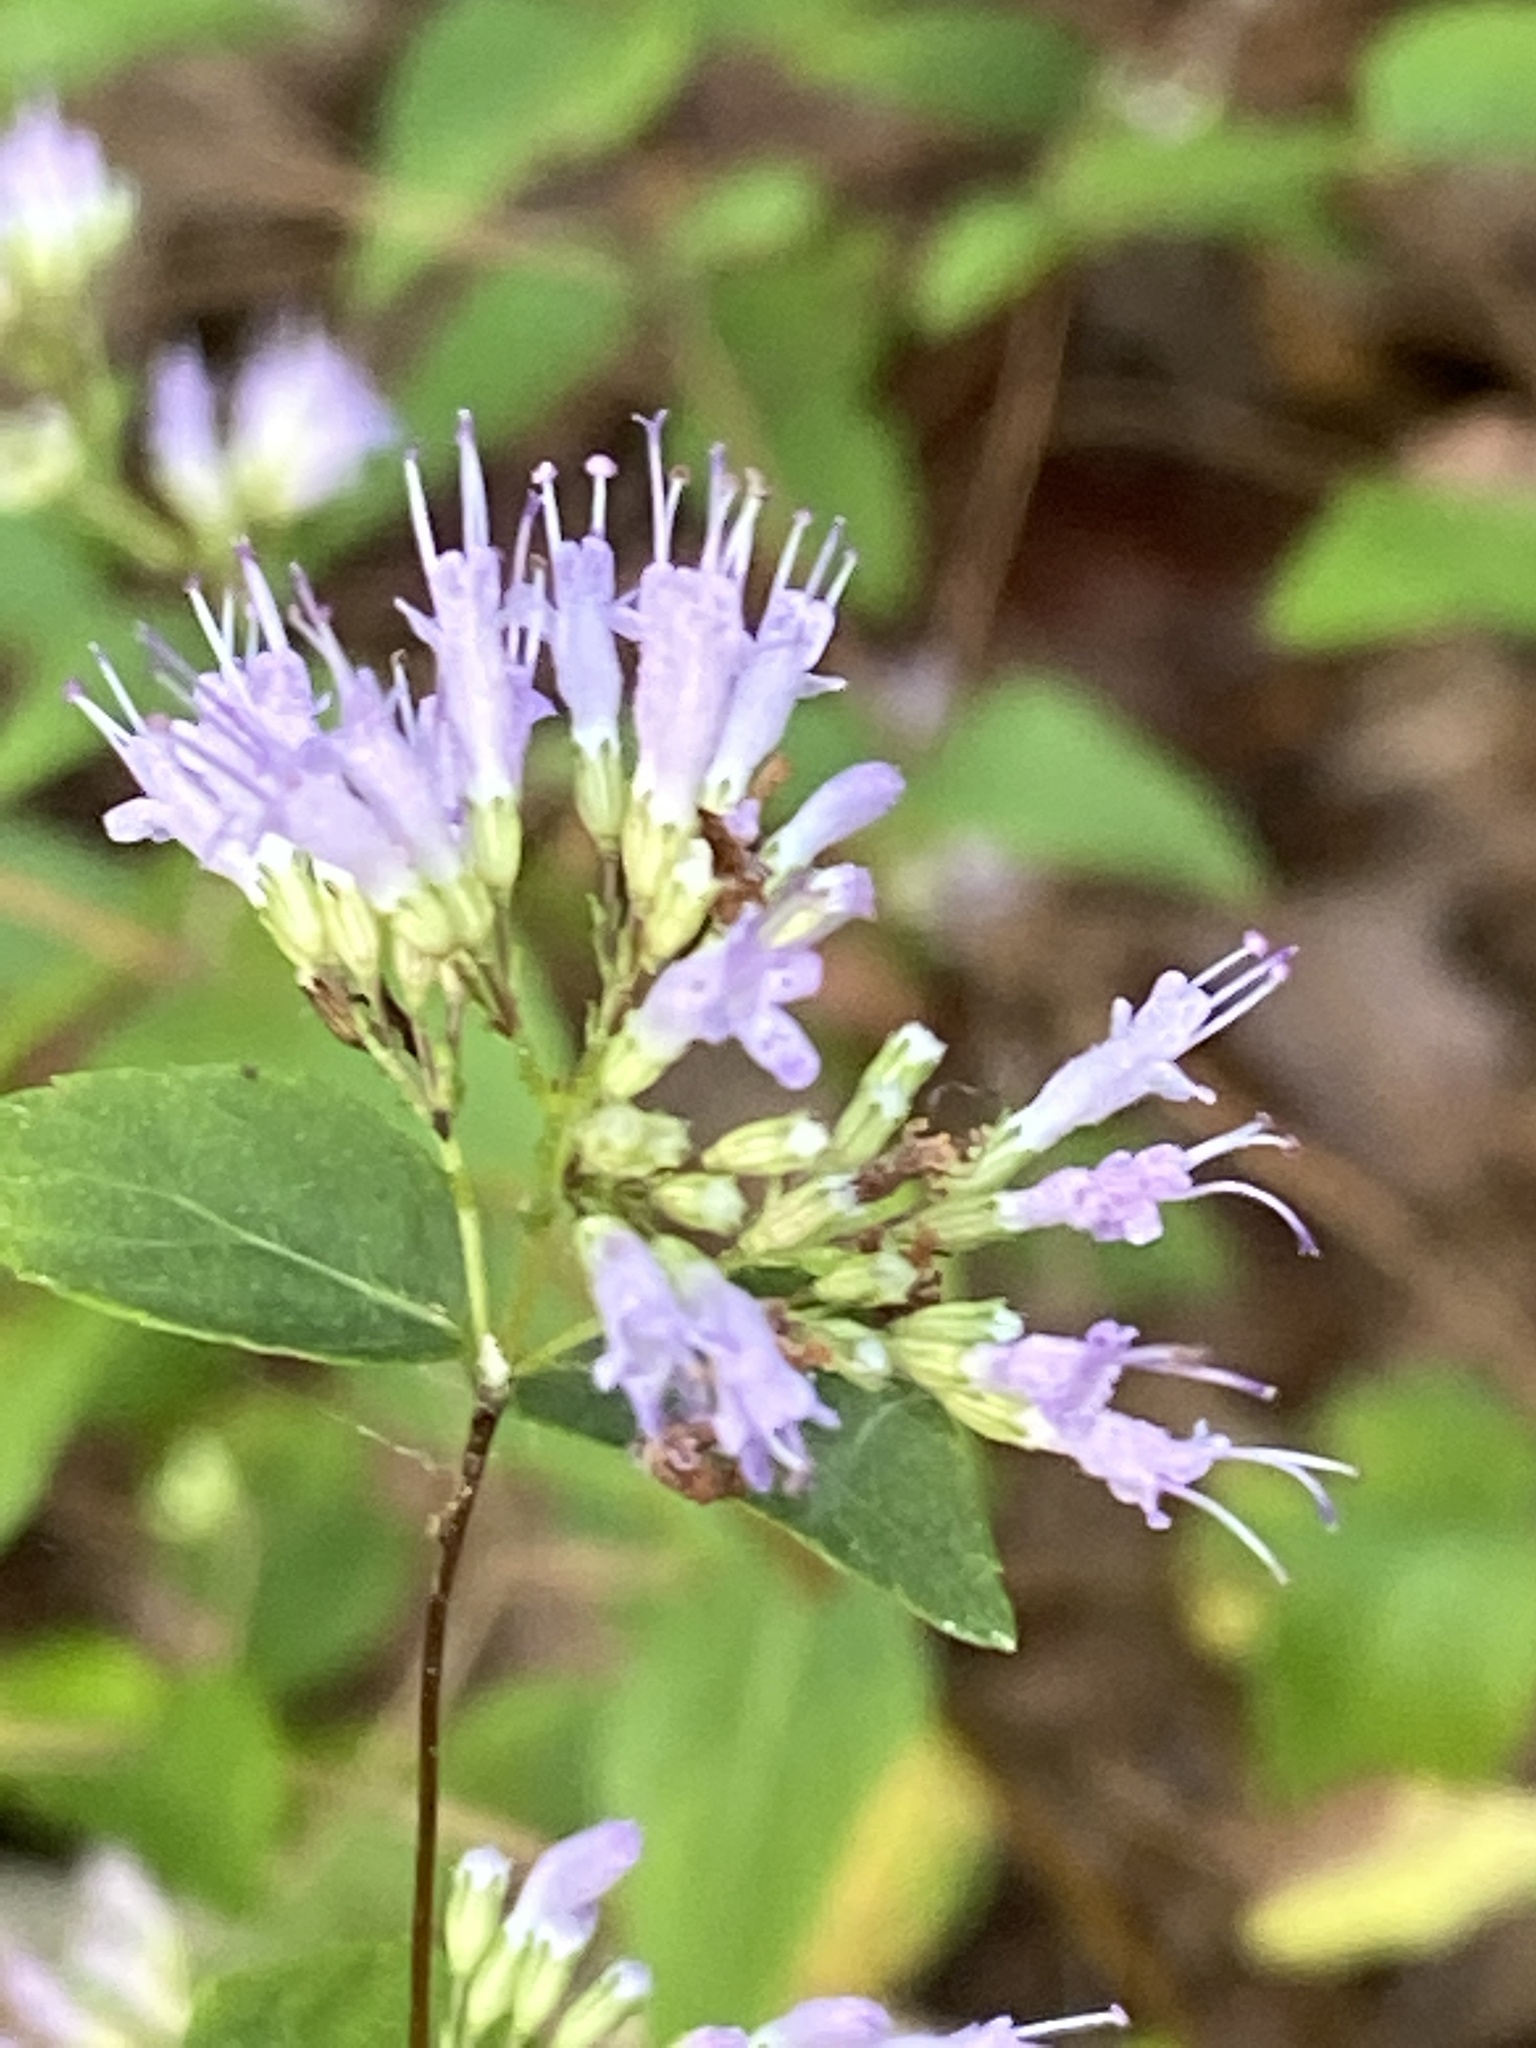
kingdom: Plantae
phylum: Tracheophyta
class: Magnoliopsida
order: Lamiales
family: Lamiaceae
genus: Cunila
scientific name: Cunila origanoides
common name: American dittany
